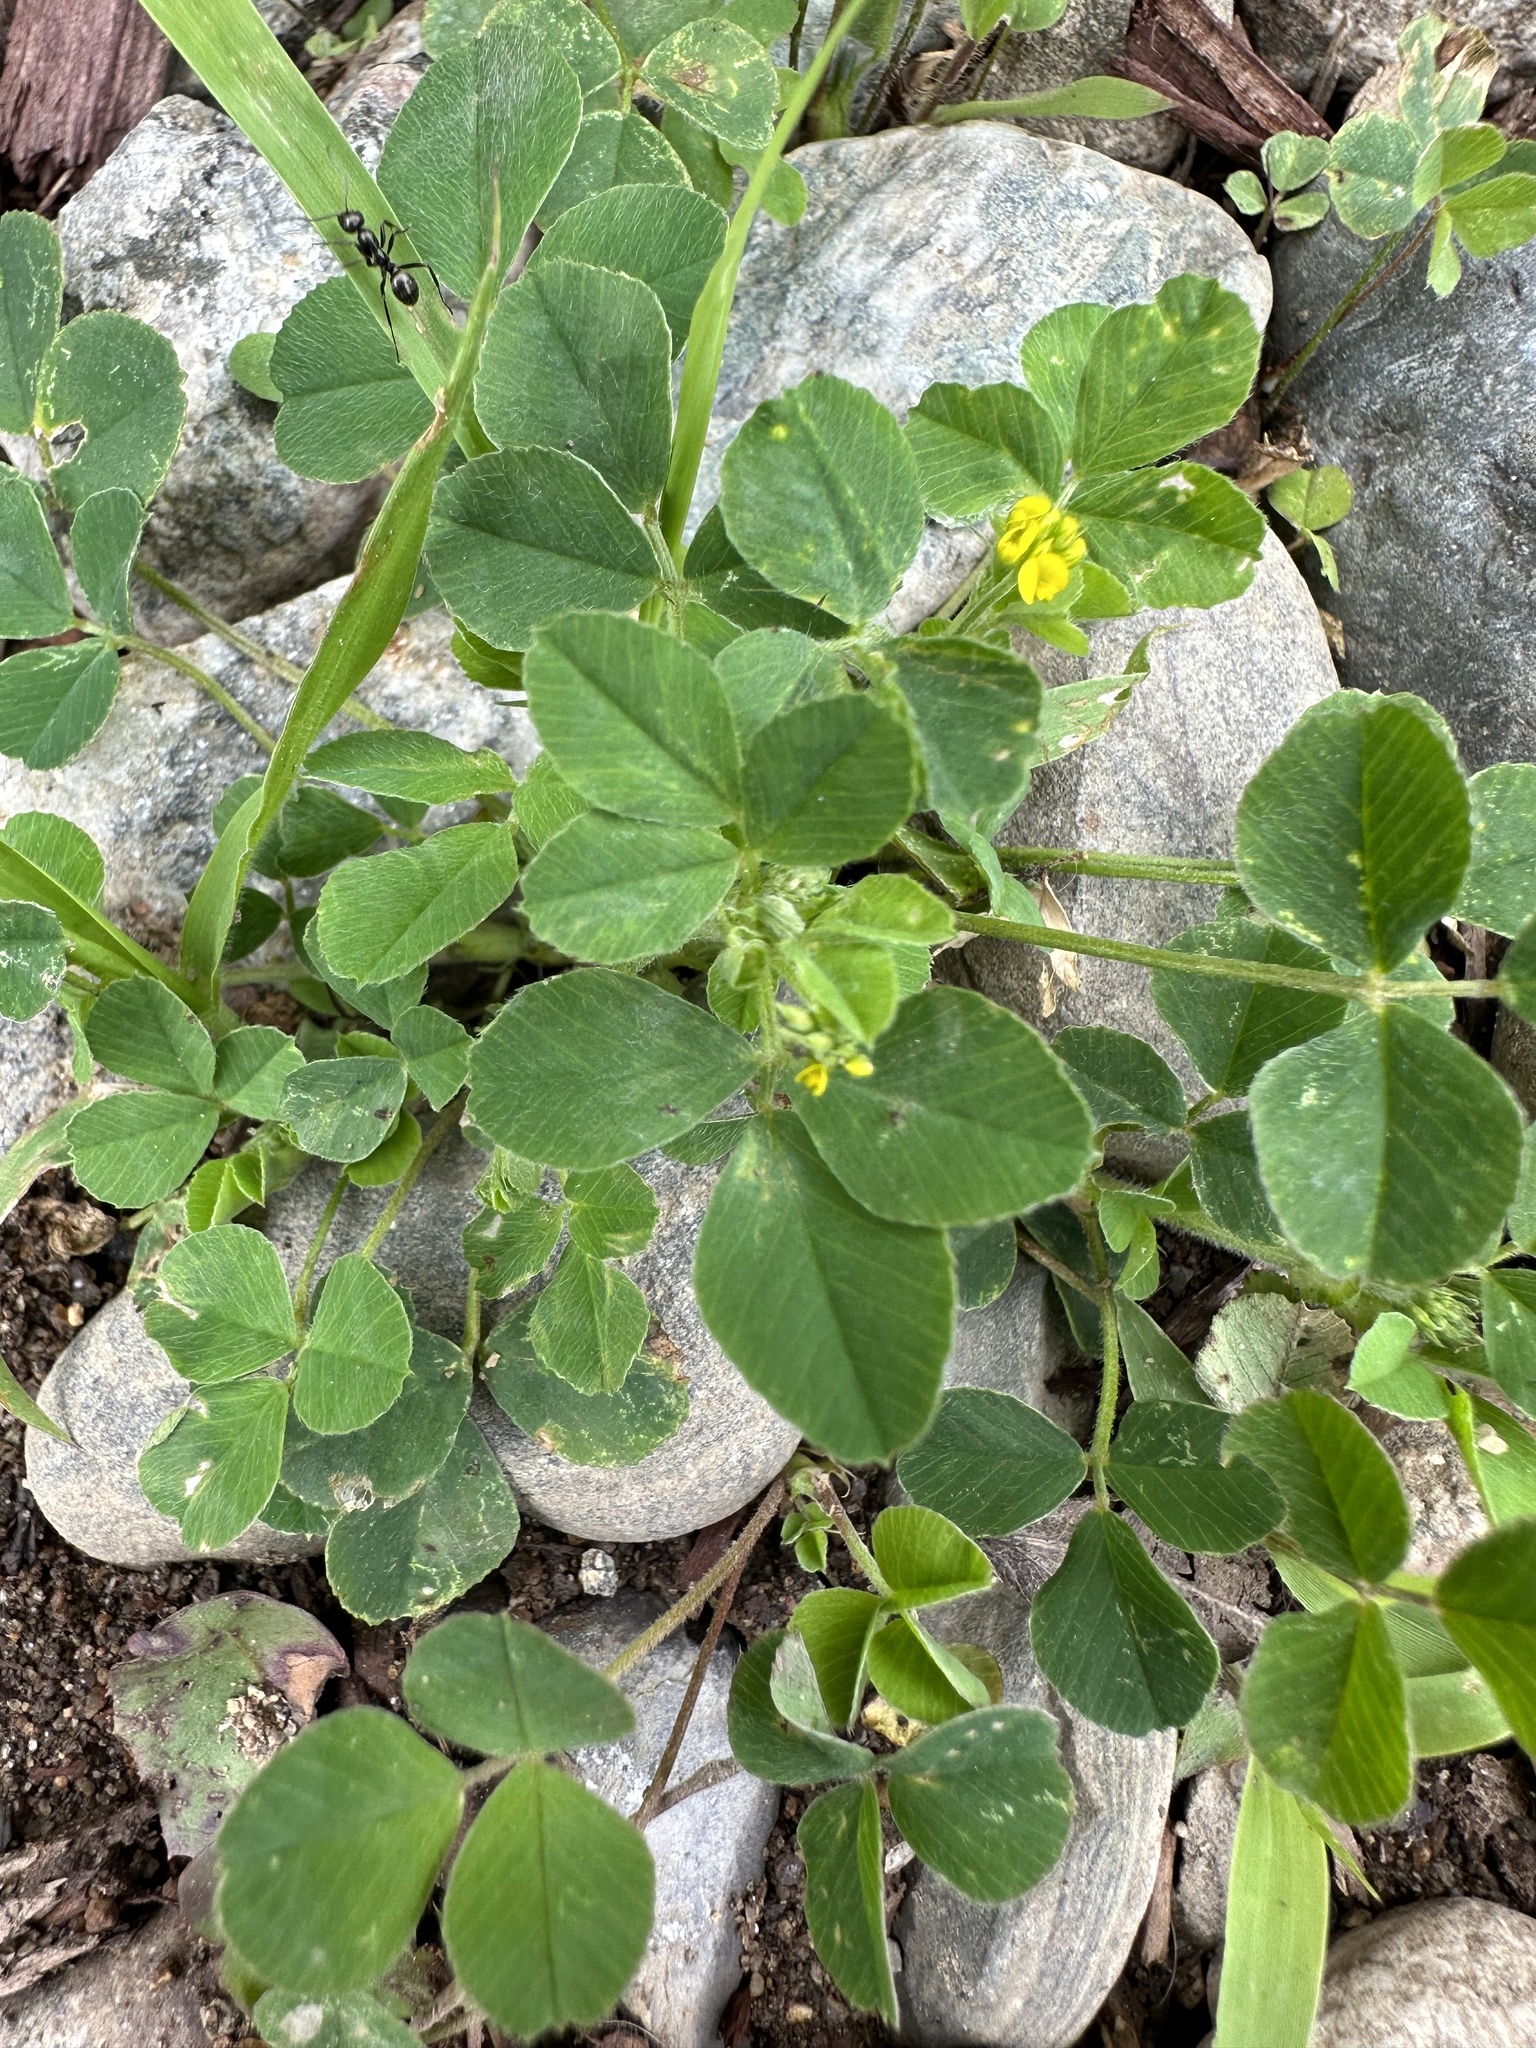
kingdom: Plantae
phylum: Tracheophyta
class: Magnoliopsida
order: Fabales
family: Fabaceae
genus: Medicago
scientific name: Medicago lupulina
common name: Black medick
